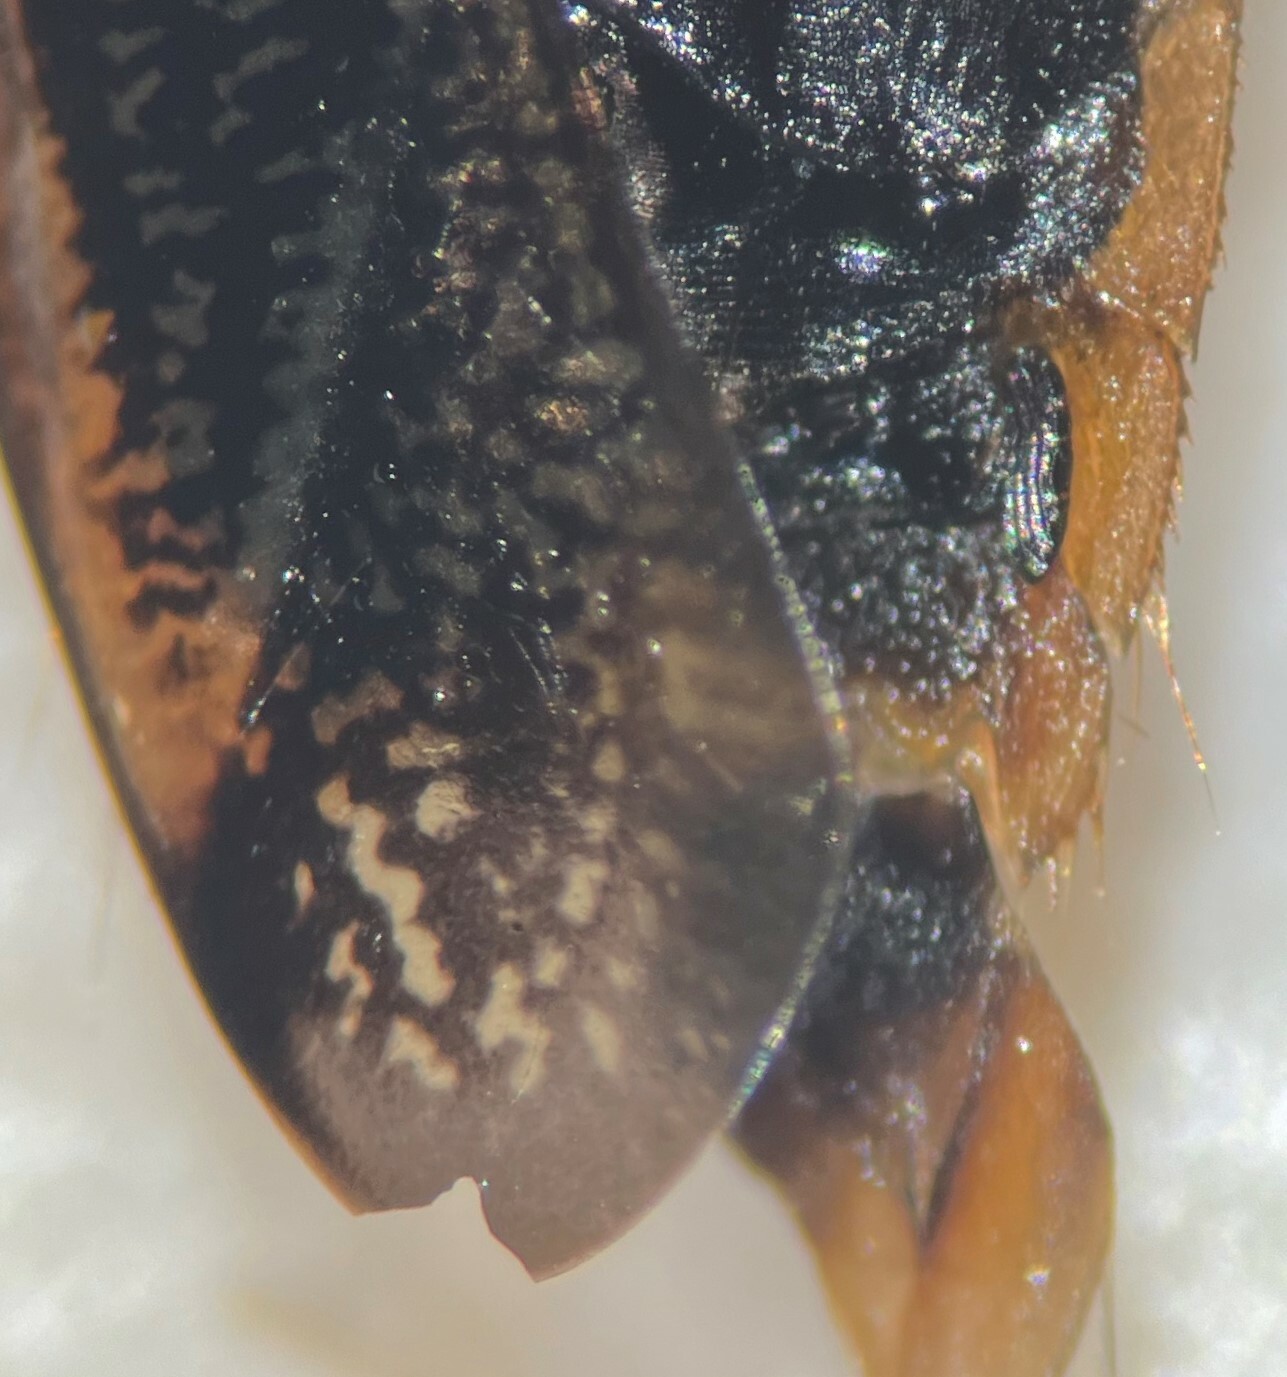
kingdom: Animalia
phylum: Arthropoda
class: Insecta
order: Hemiptera
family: Corixidae
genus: Hesperocorixa
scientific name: Hesperocorixa michiganensis
